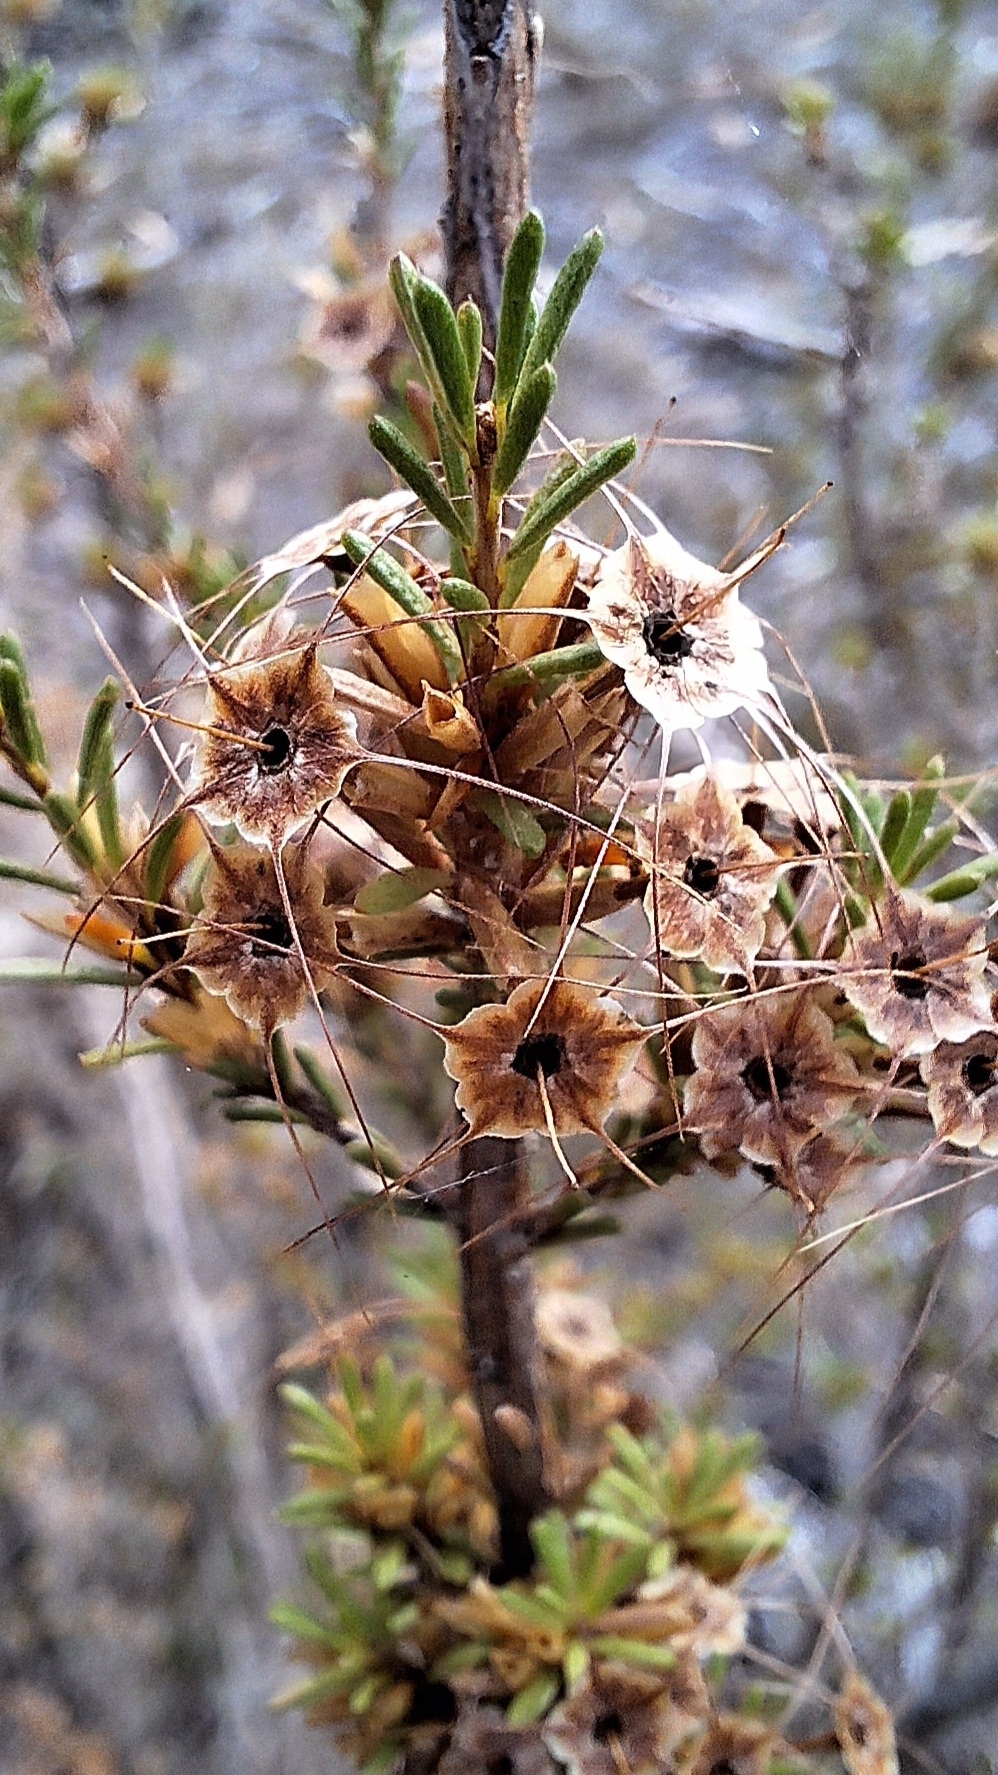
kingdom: Plantae
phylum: Tracheophyta
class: Magnoliopsida
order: Myrtales
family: Myrtaceae
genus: Calytrix
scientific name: Calytrix tetragona
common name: Common fringe myrtle
